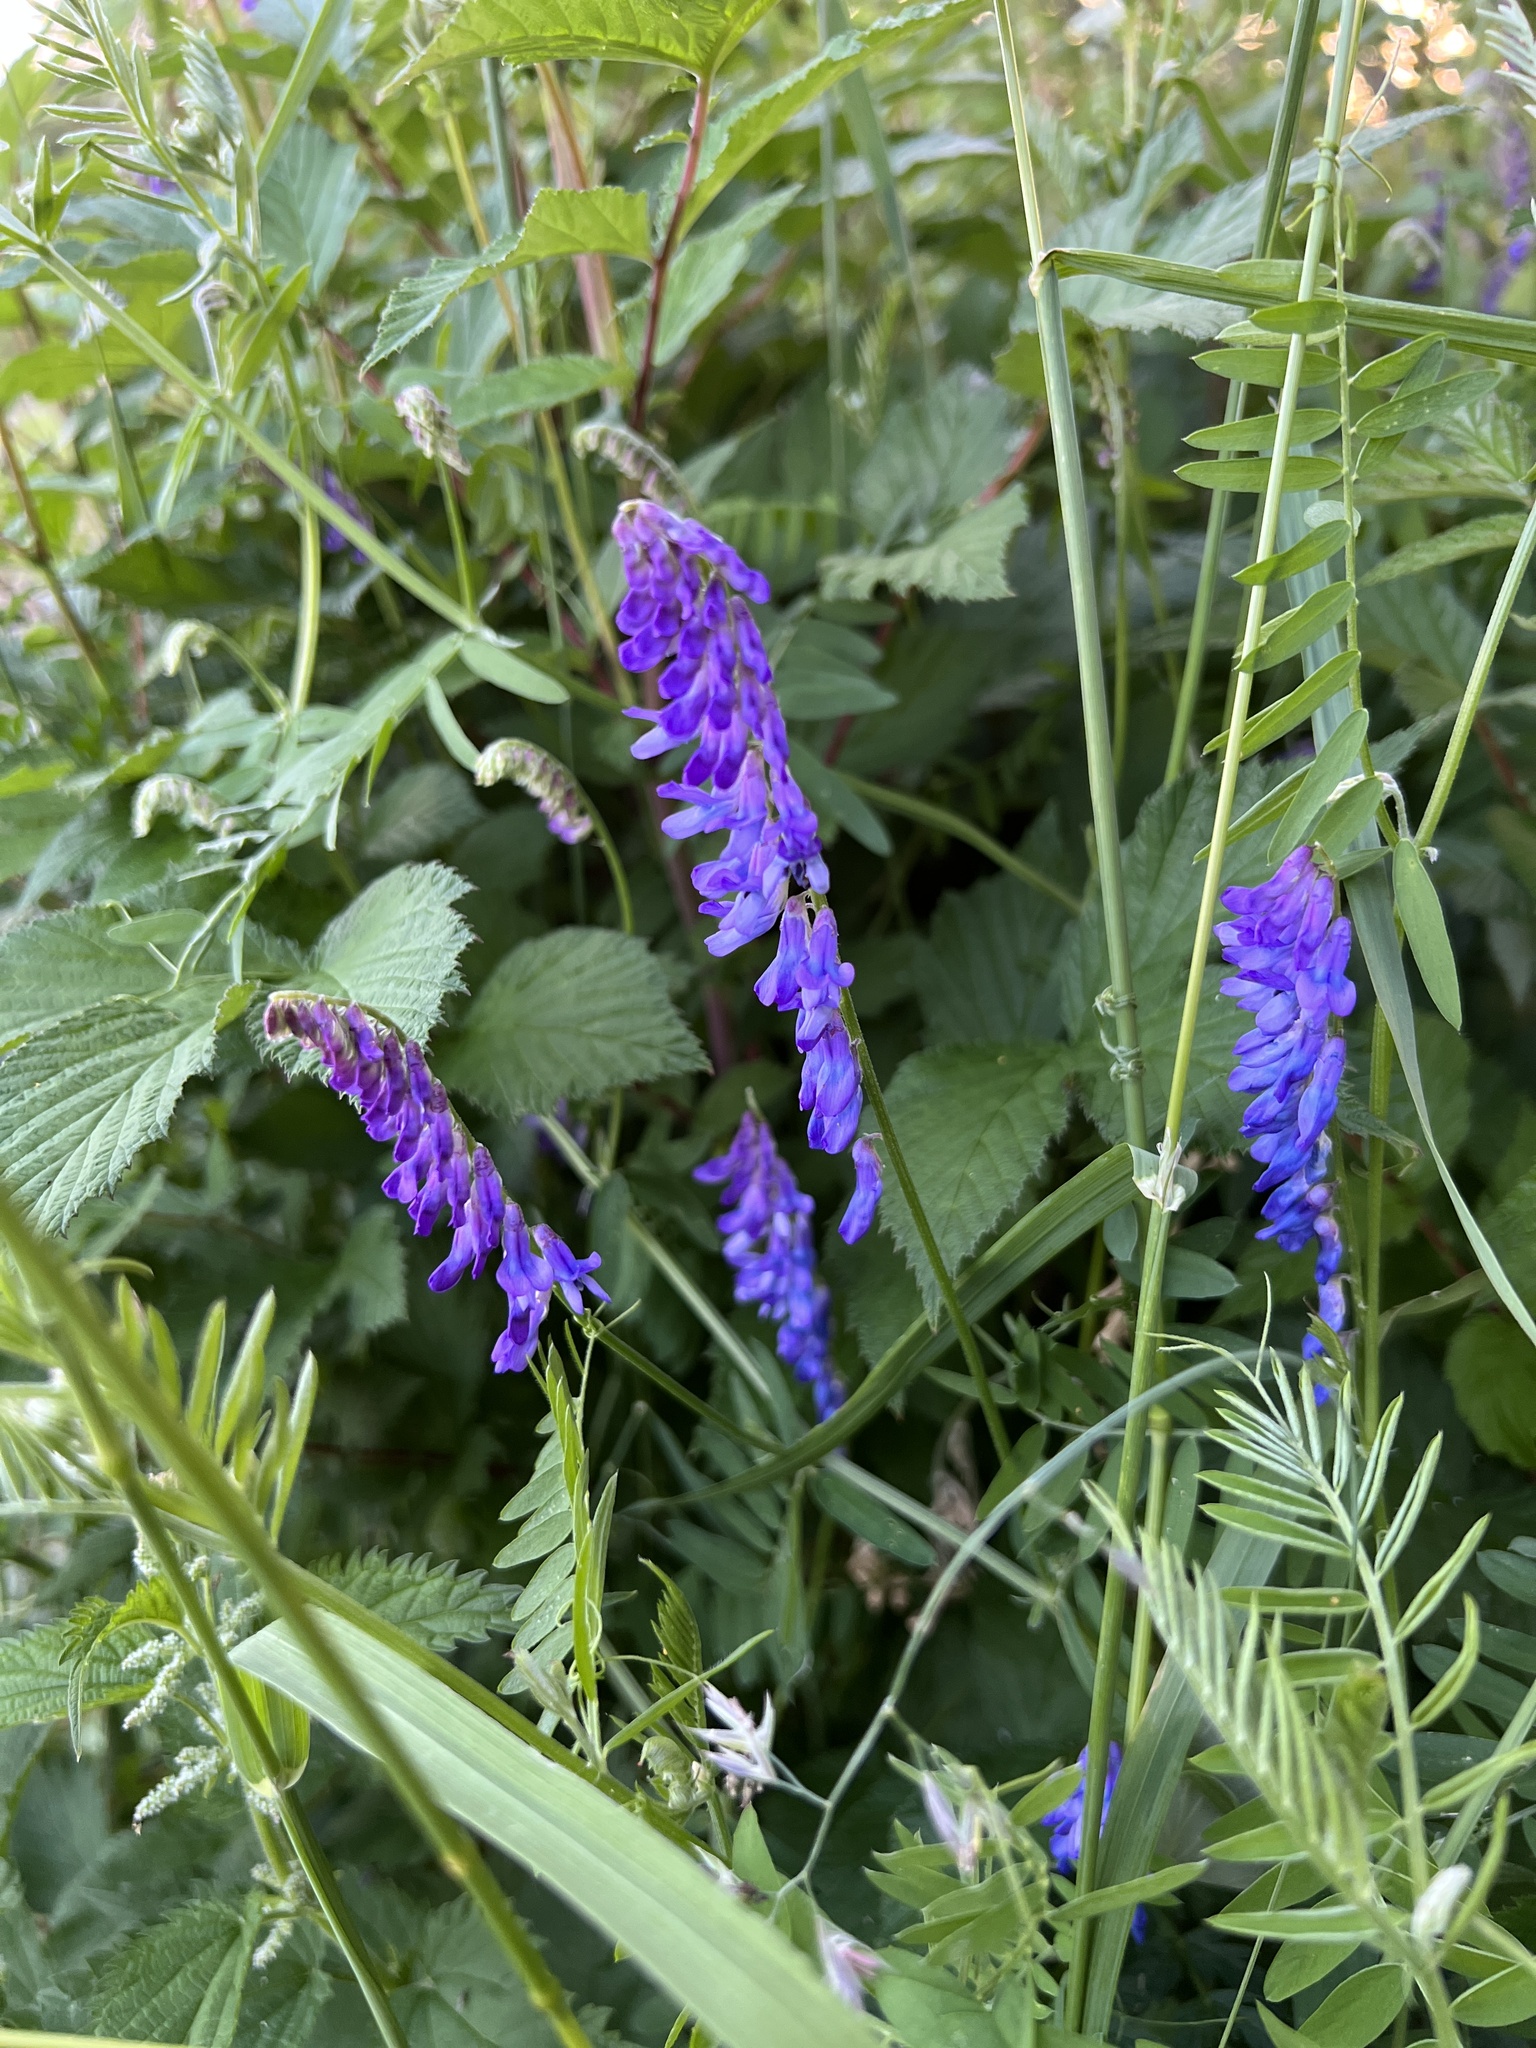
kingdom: Plantae
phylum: Tracheophyta
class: Magnoliopsida
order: Fabales
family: Fabaceae
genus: Vicia
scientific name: Vicia cracca
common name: Bird vetch
